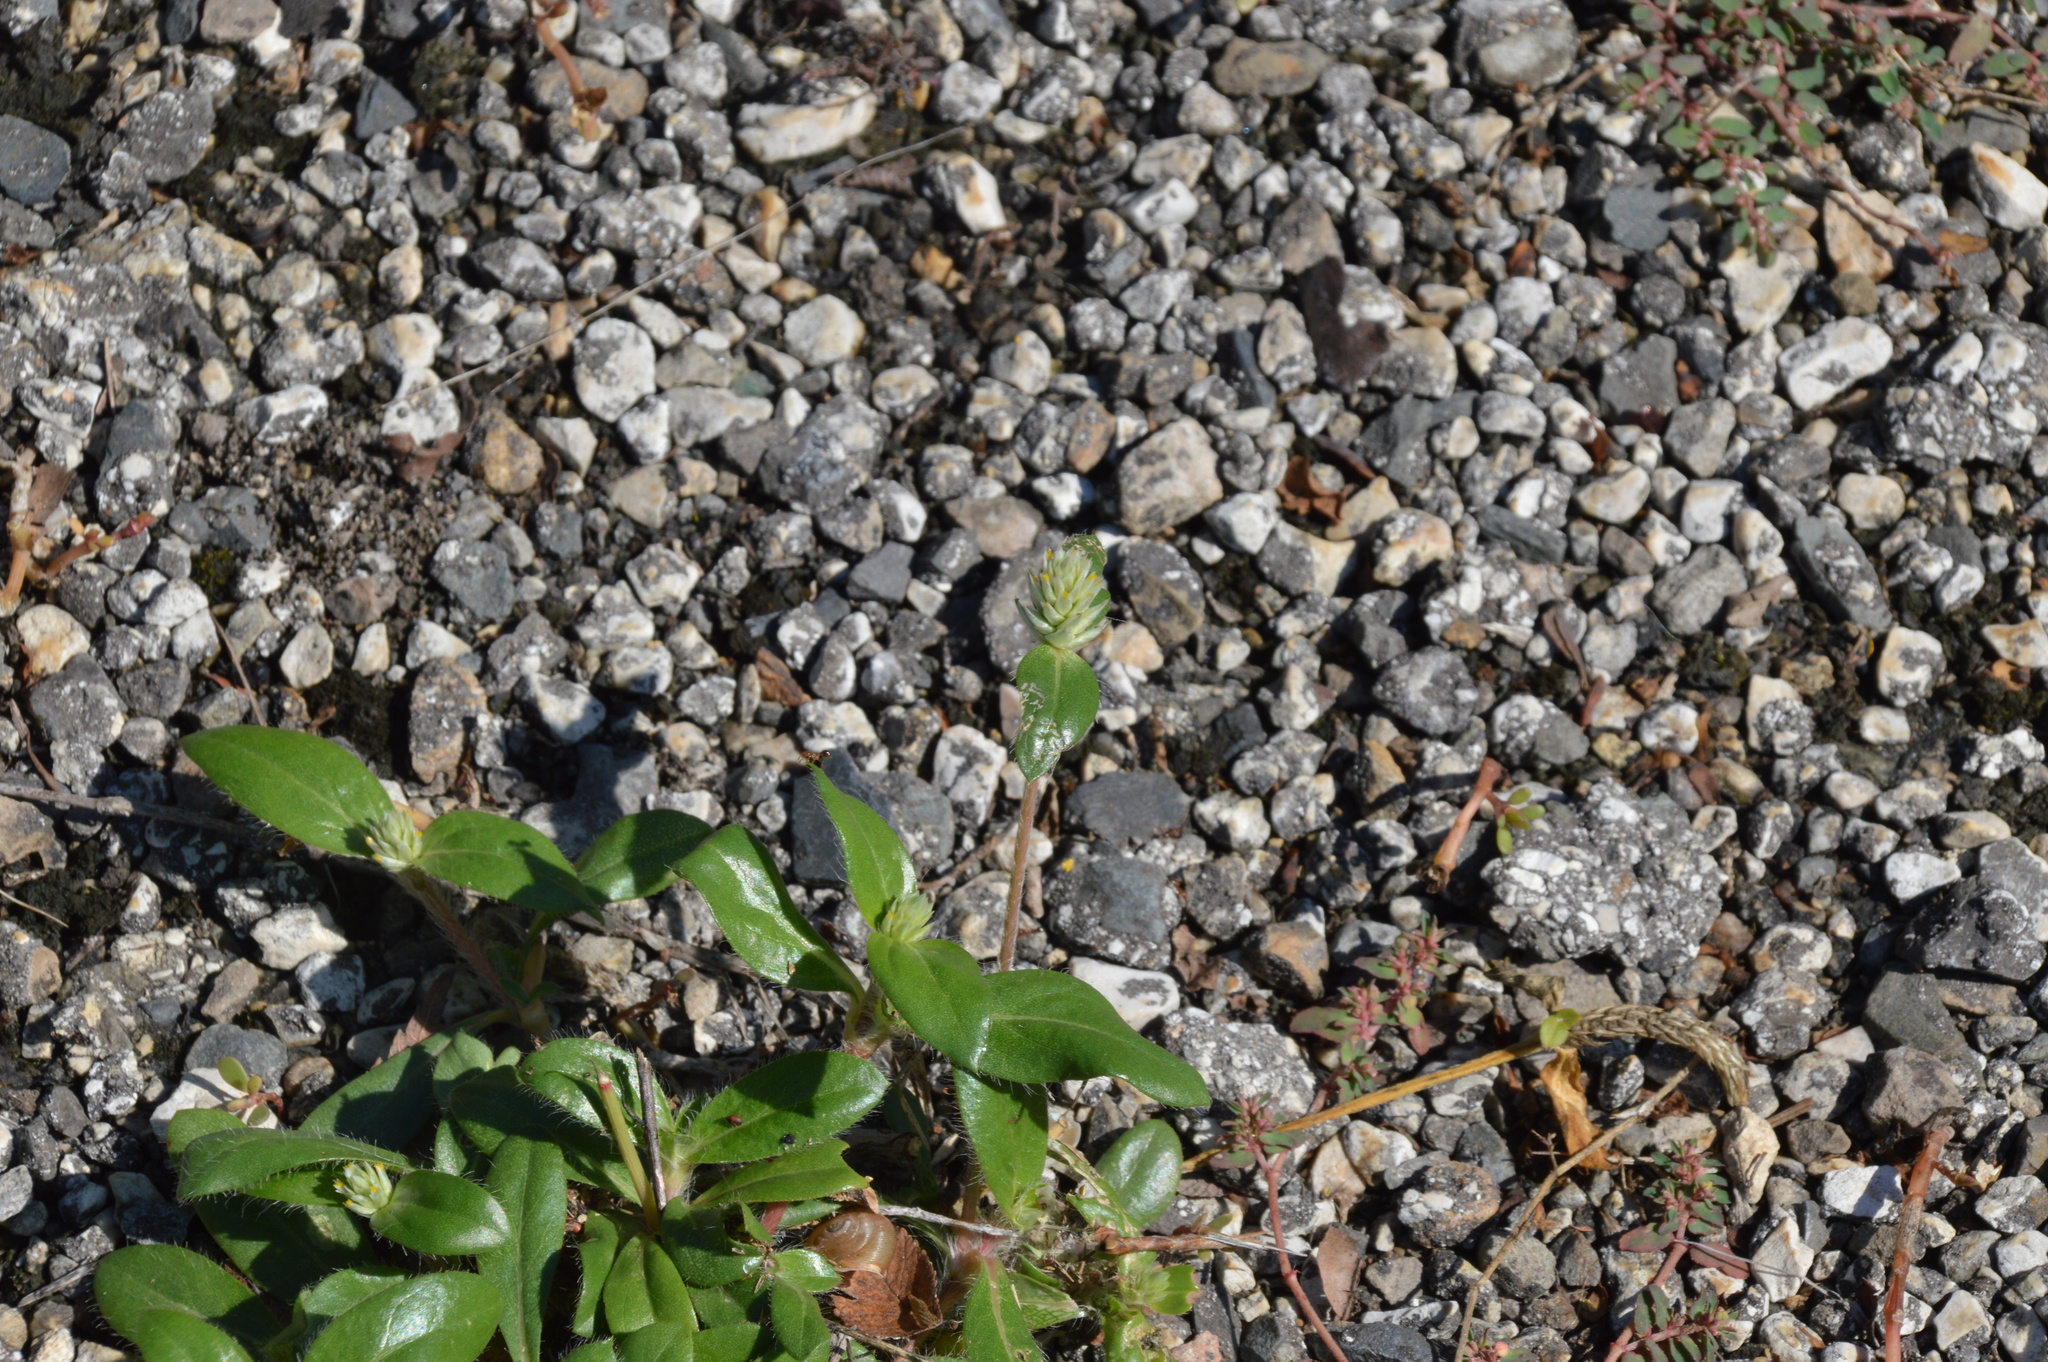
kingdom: Plantae
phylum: Tracheophyta
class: Magnoliopsida
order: Caryophyllales
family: Amaranthaceae
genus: Gomphrena
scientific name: Gomphrena serrata
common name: Arrasa con todo
